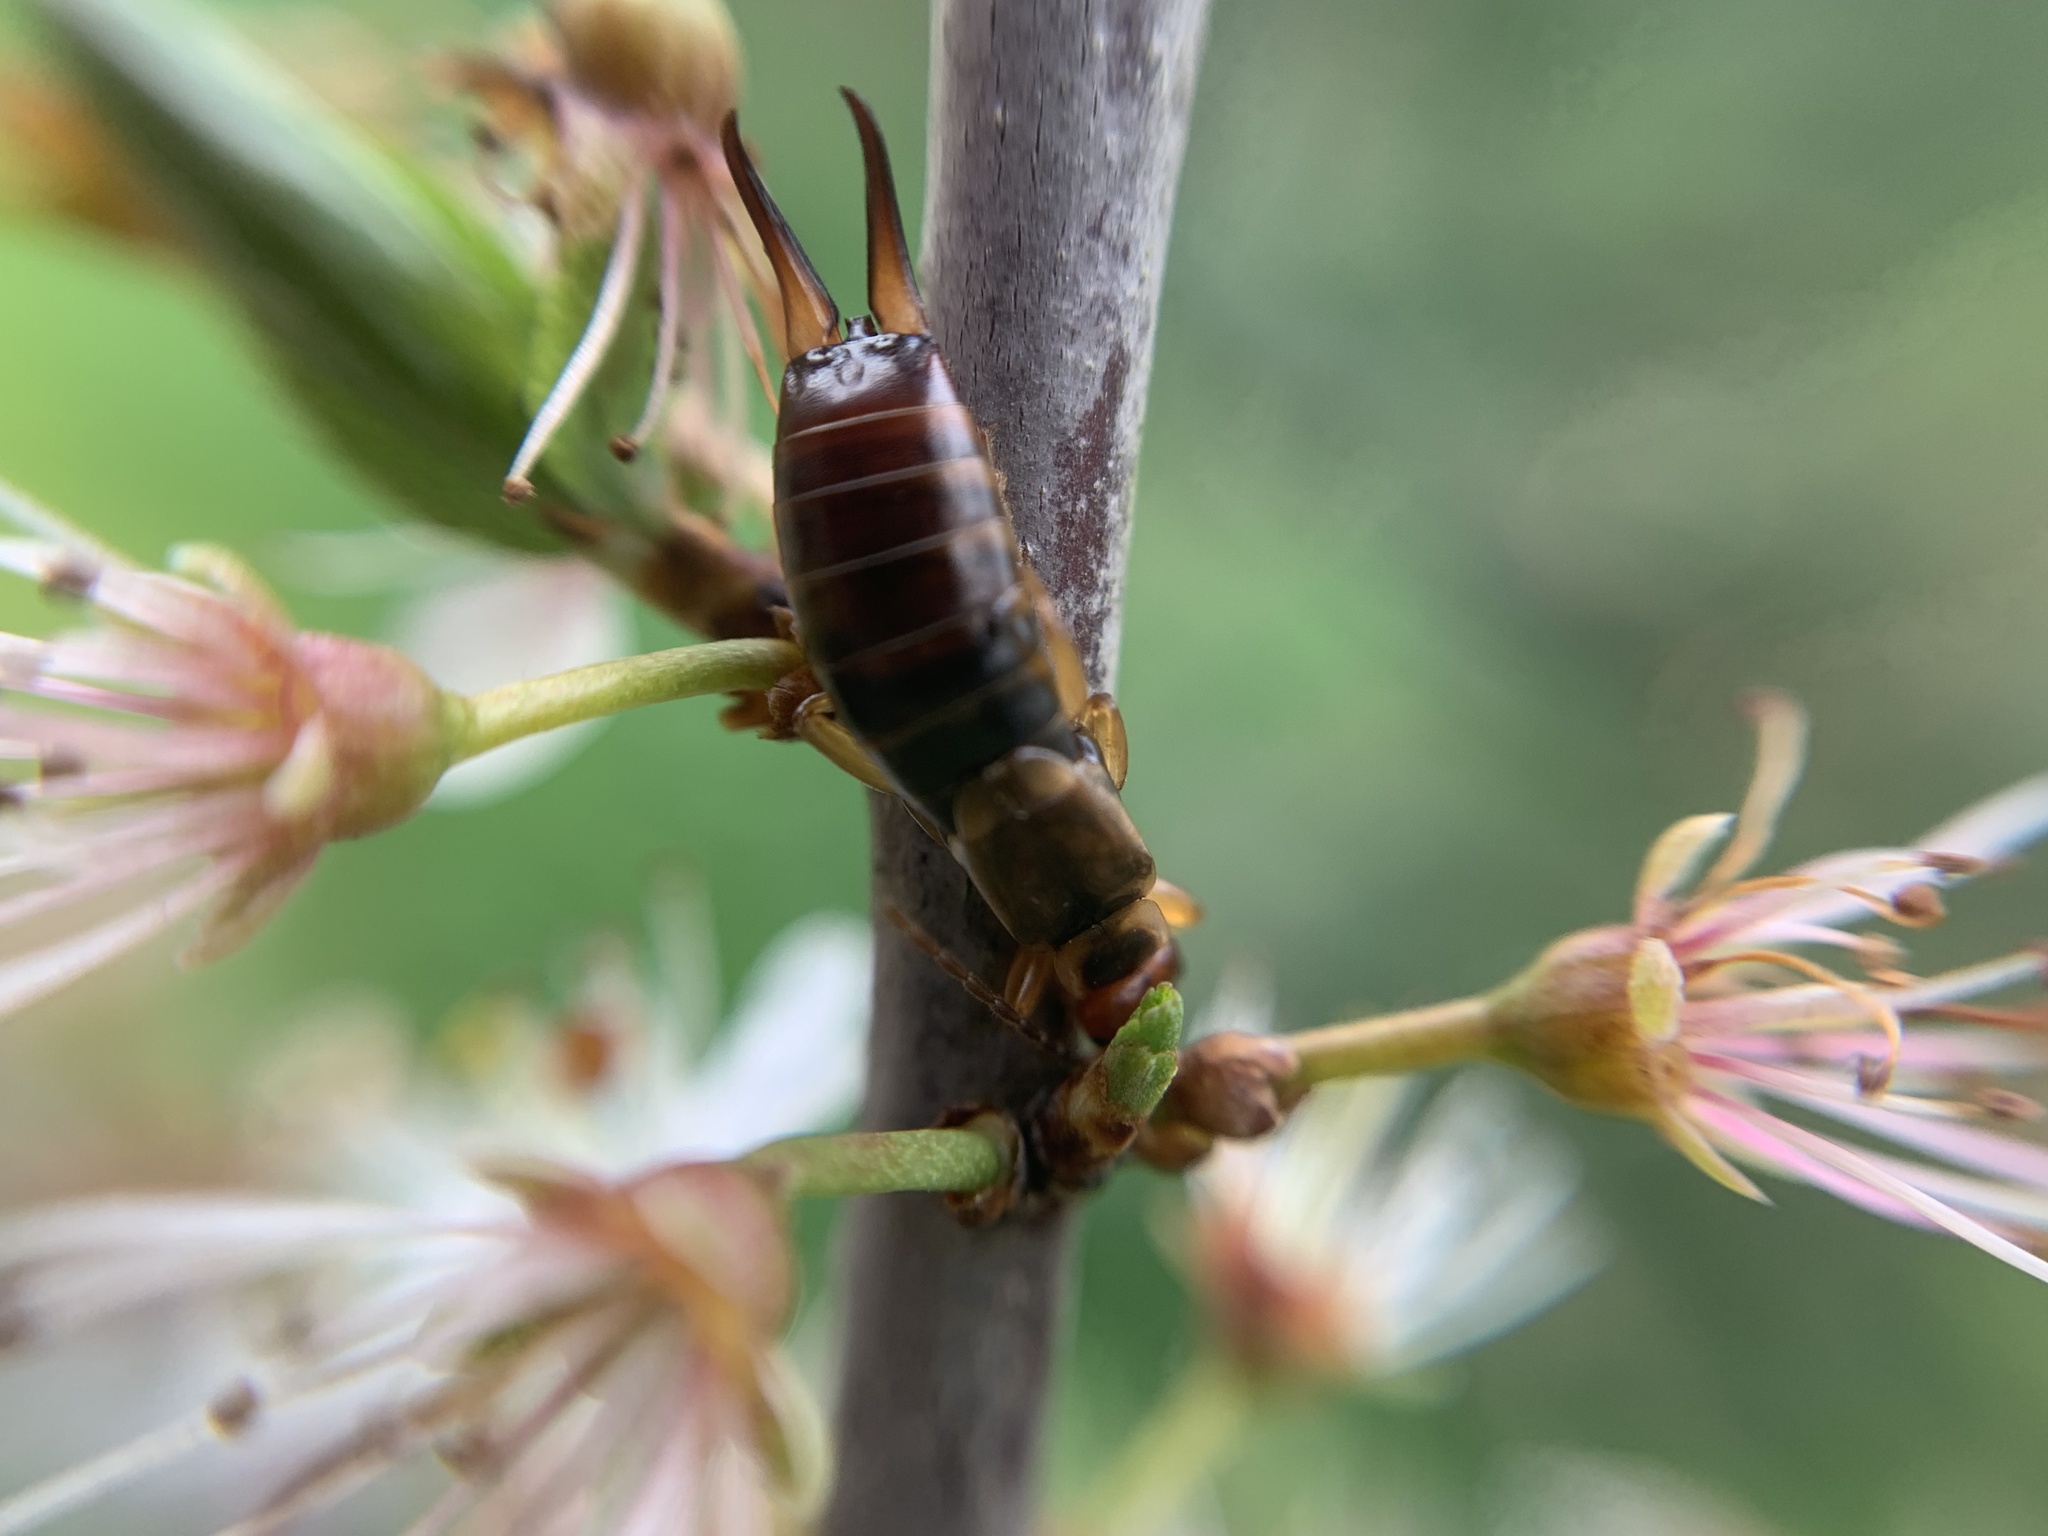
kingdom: Animalia
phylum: Arthropoda
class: Insecta
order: Dermaptera
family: Forficulidae
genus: Forficula
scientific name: Forficula
